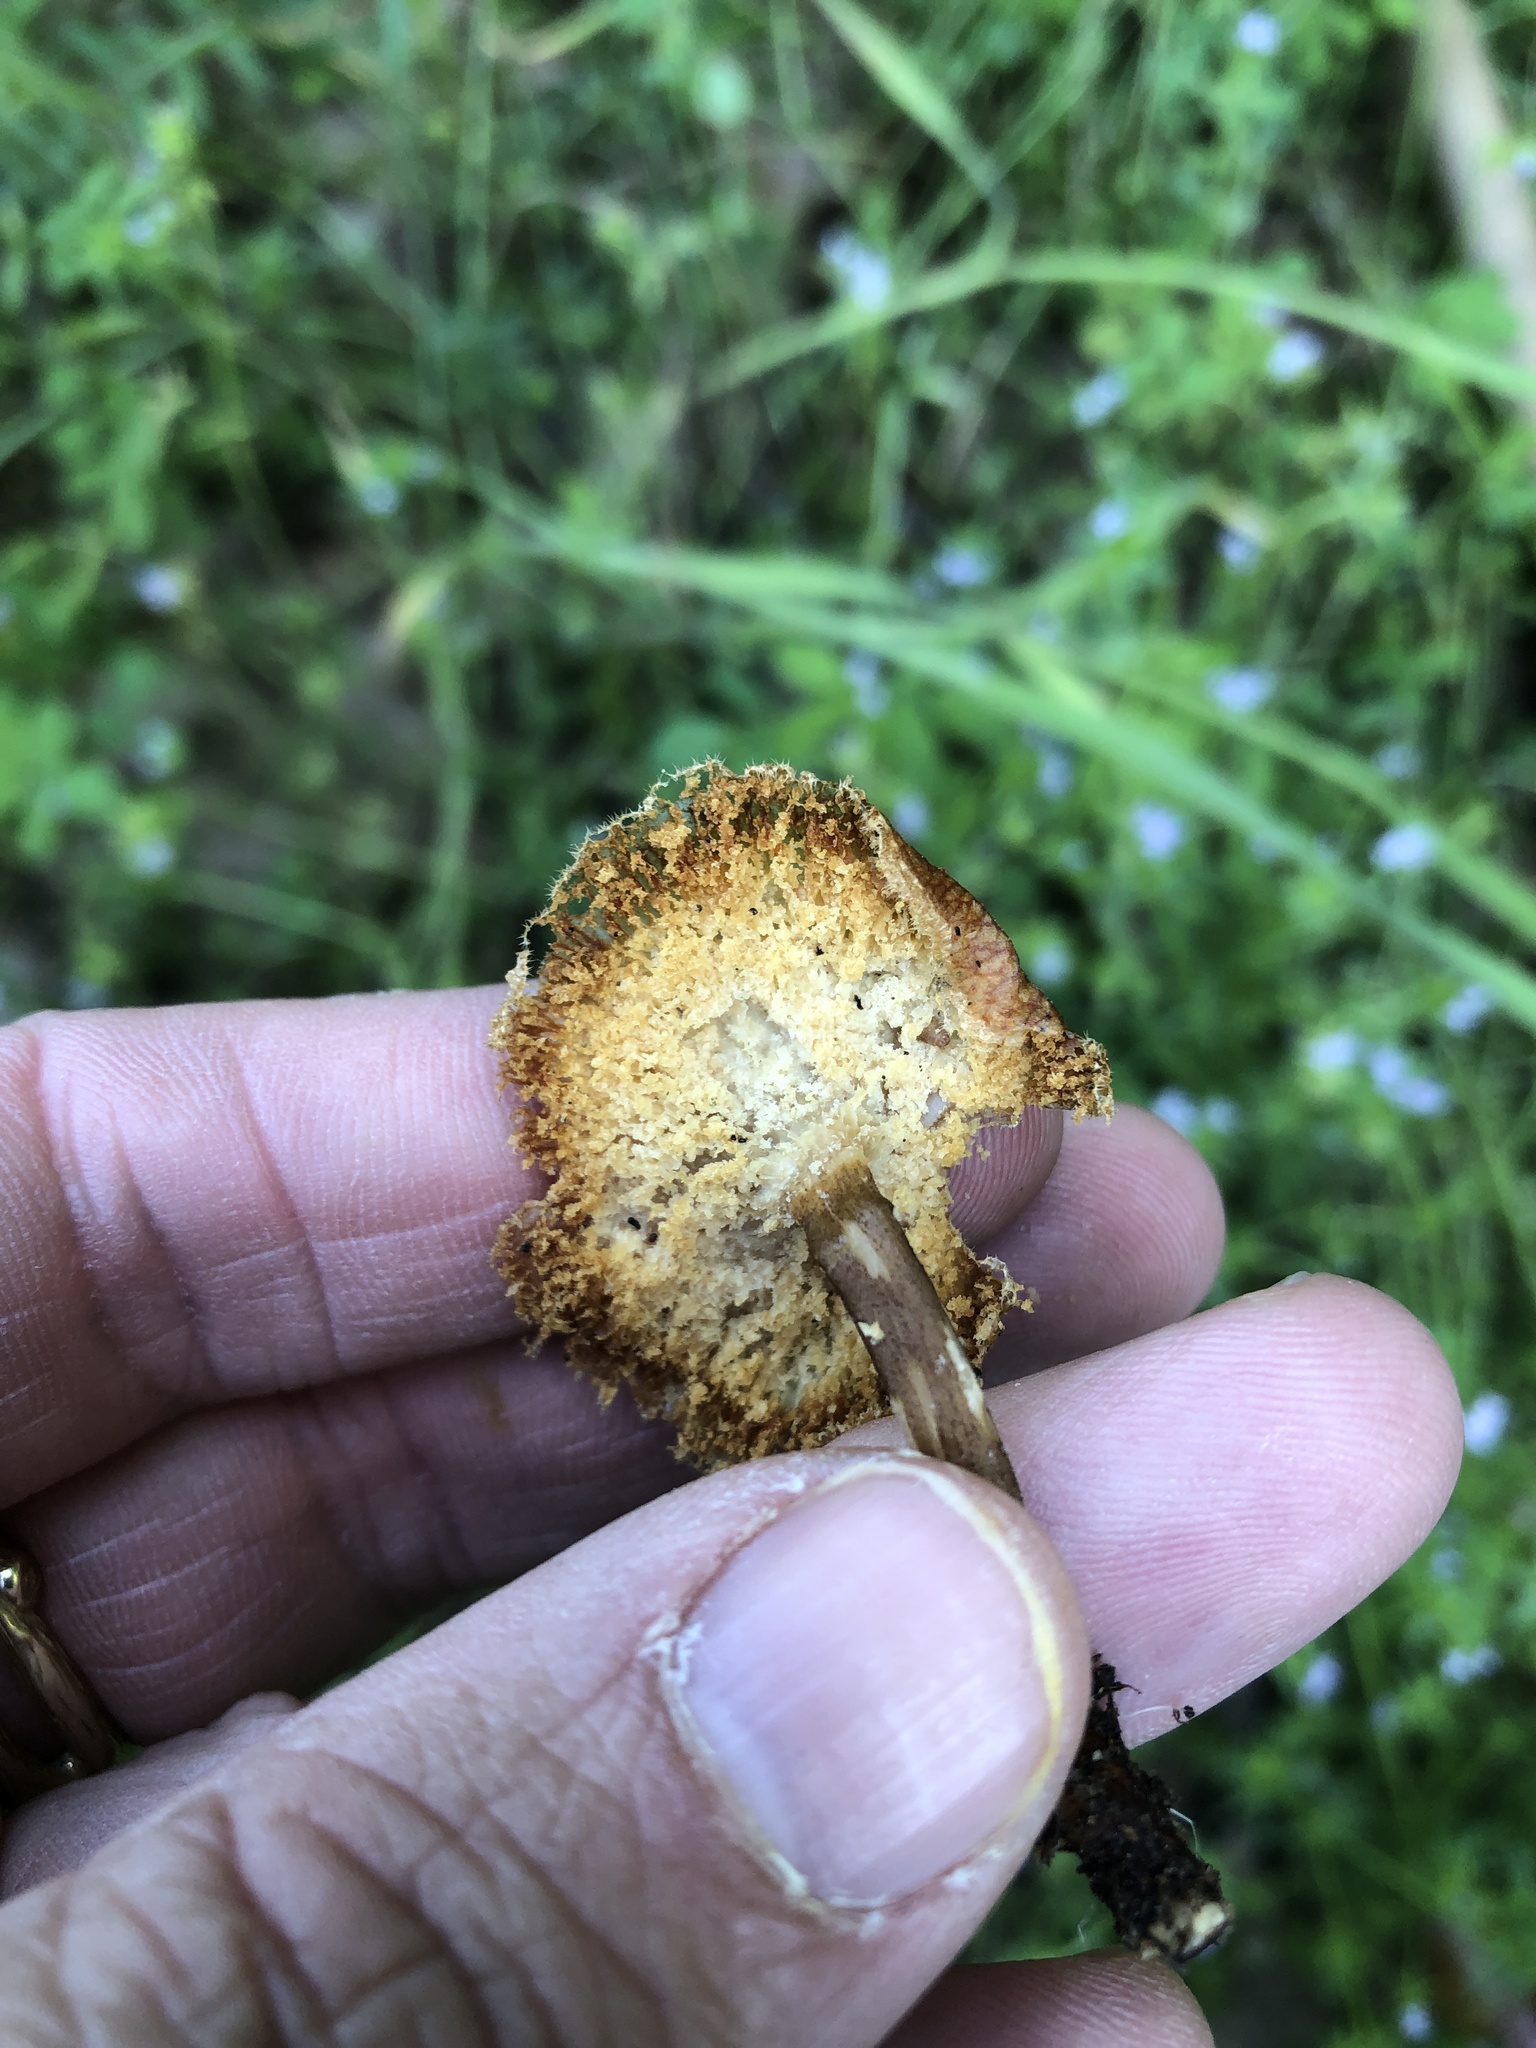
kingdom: Fungi
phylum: Basidiomycota
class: Agaricomycetes
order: Polyporales
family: Polyporaceae
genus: Lentinus
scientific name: Lentinus arcularius
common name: Spring polypore
